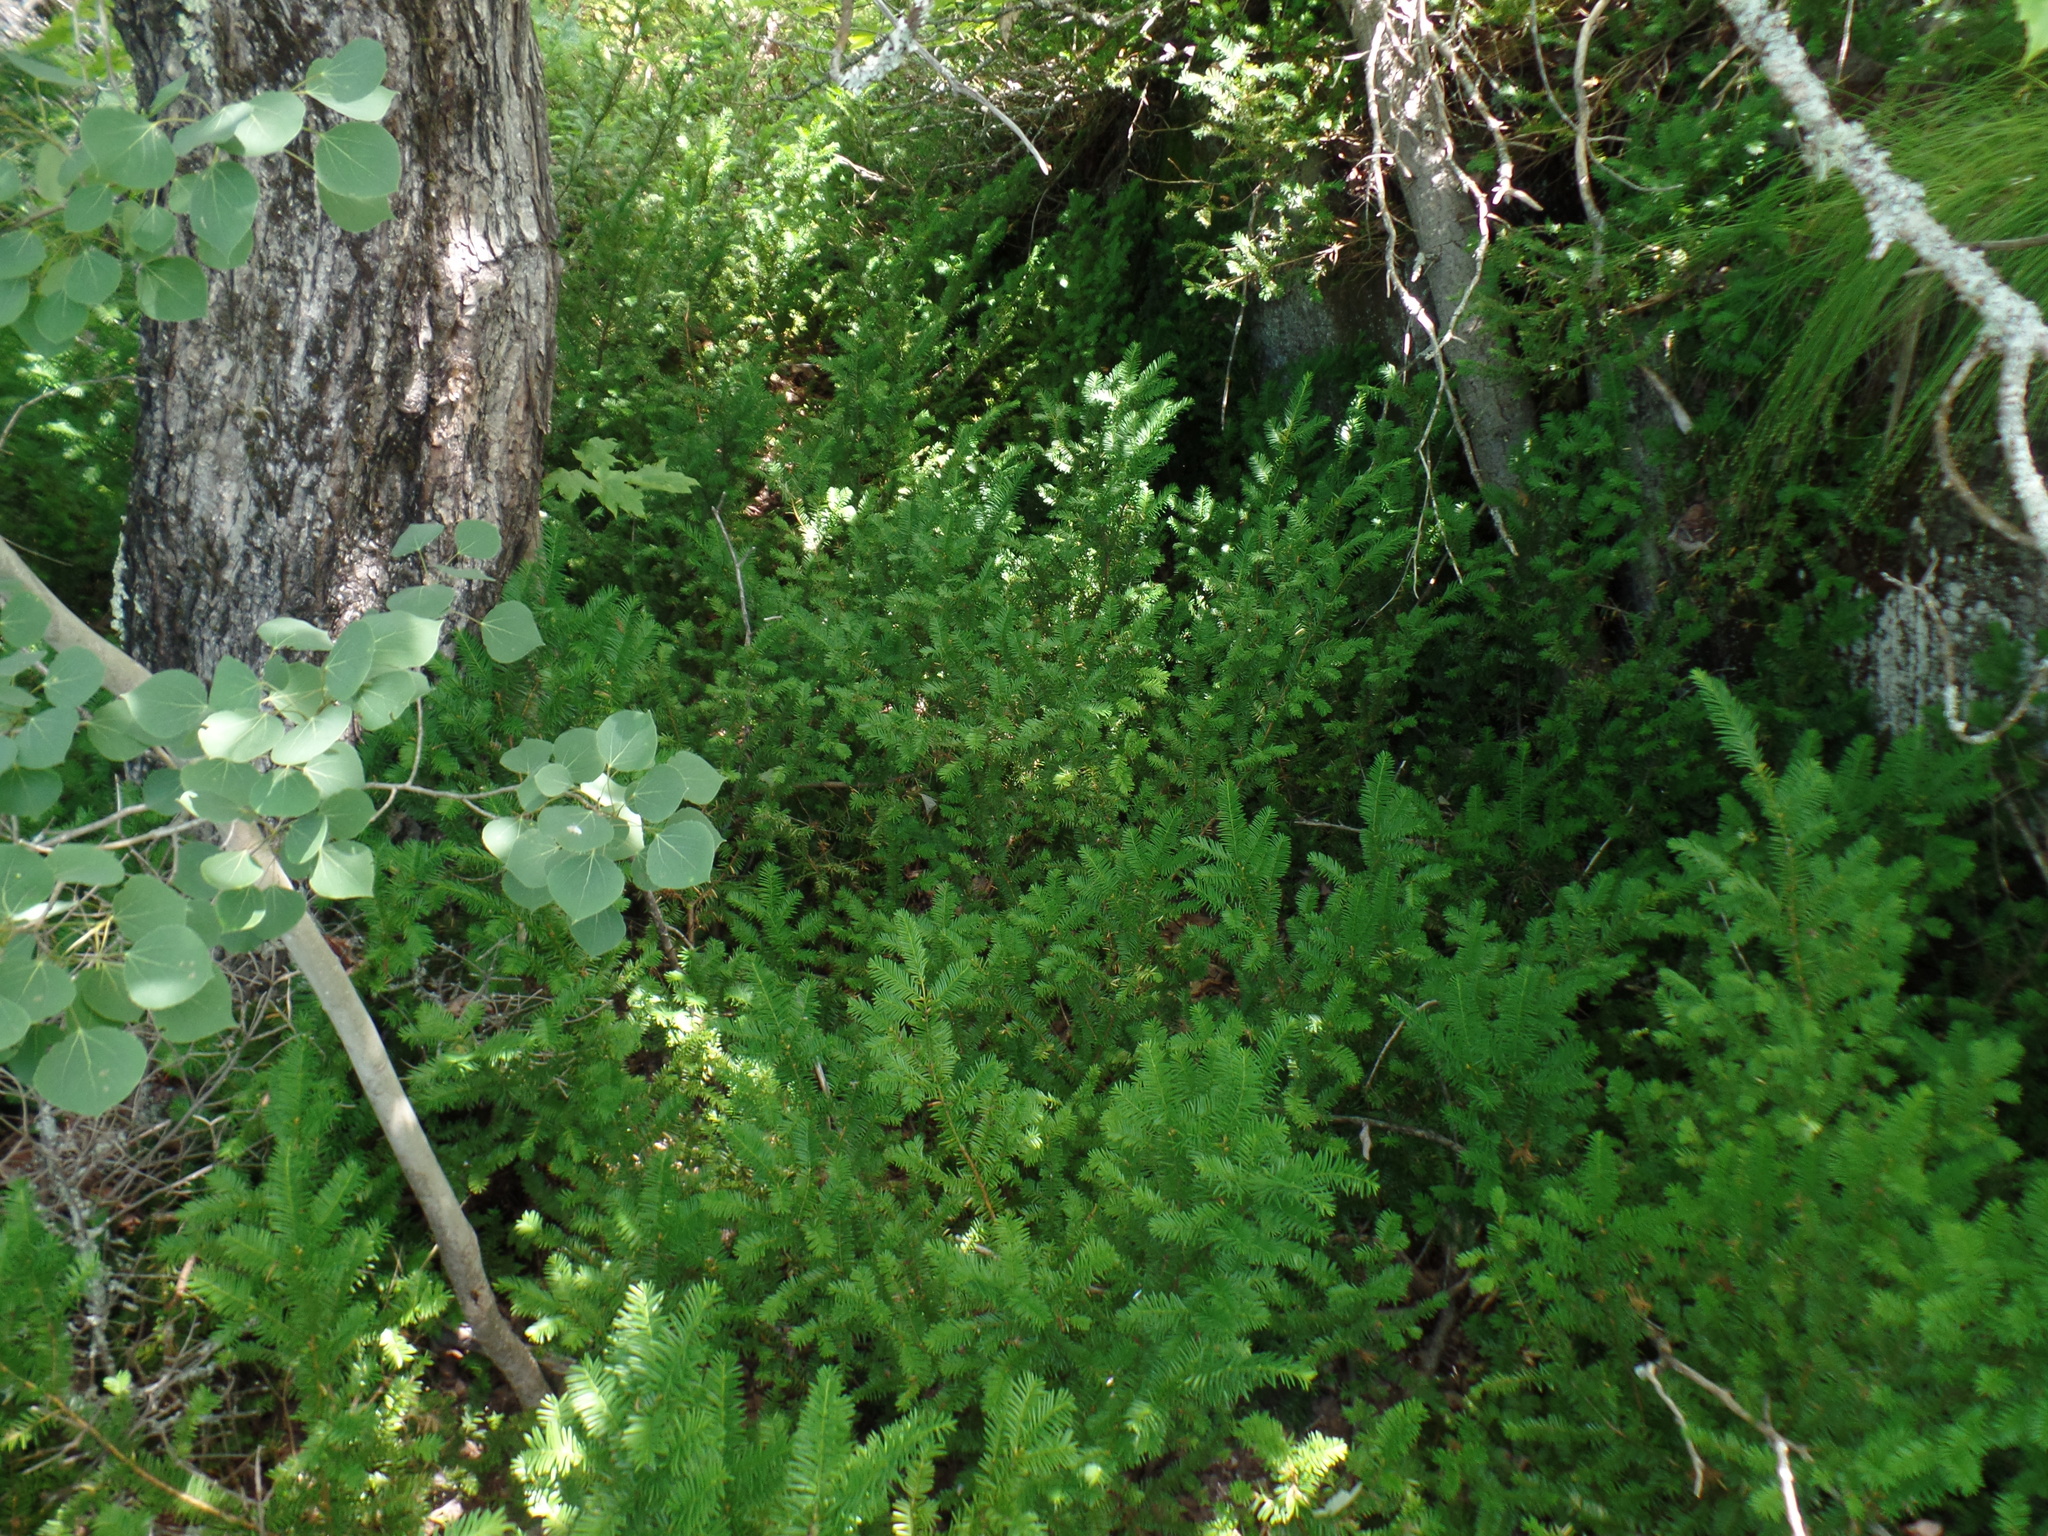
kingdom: Plantae
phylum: Tracheophyta
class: Pinopsida
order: Pinales
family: Taxaceae
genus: Taxus
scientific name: Taxus canadensis
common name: American yew
